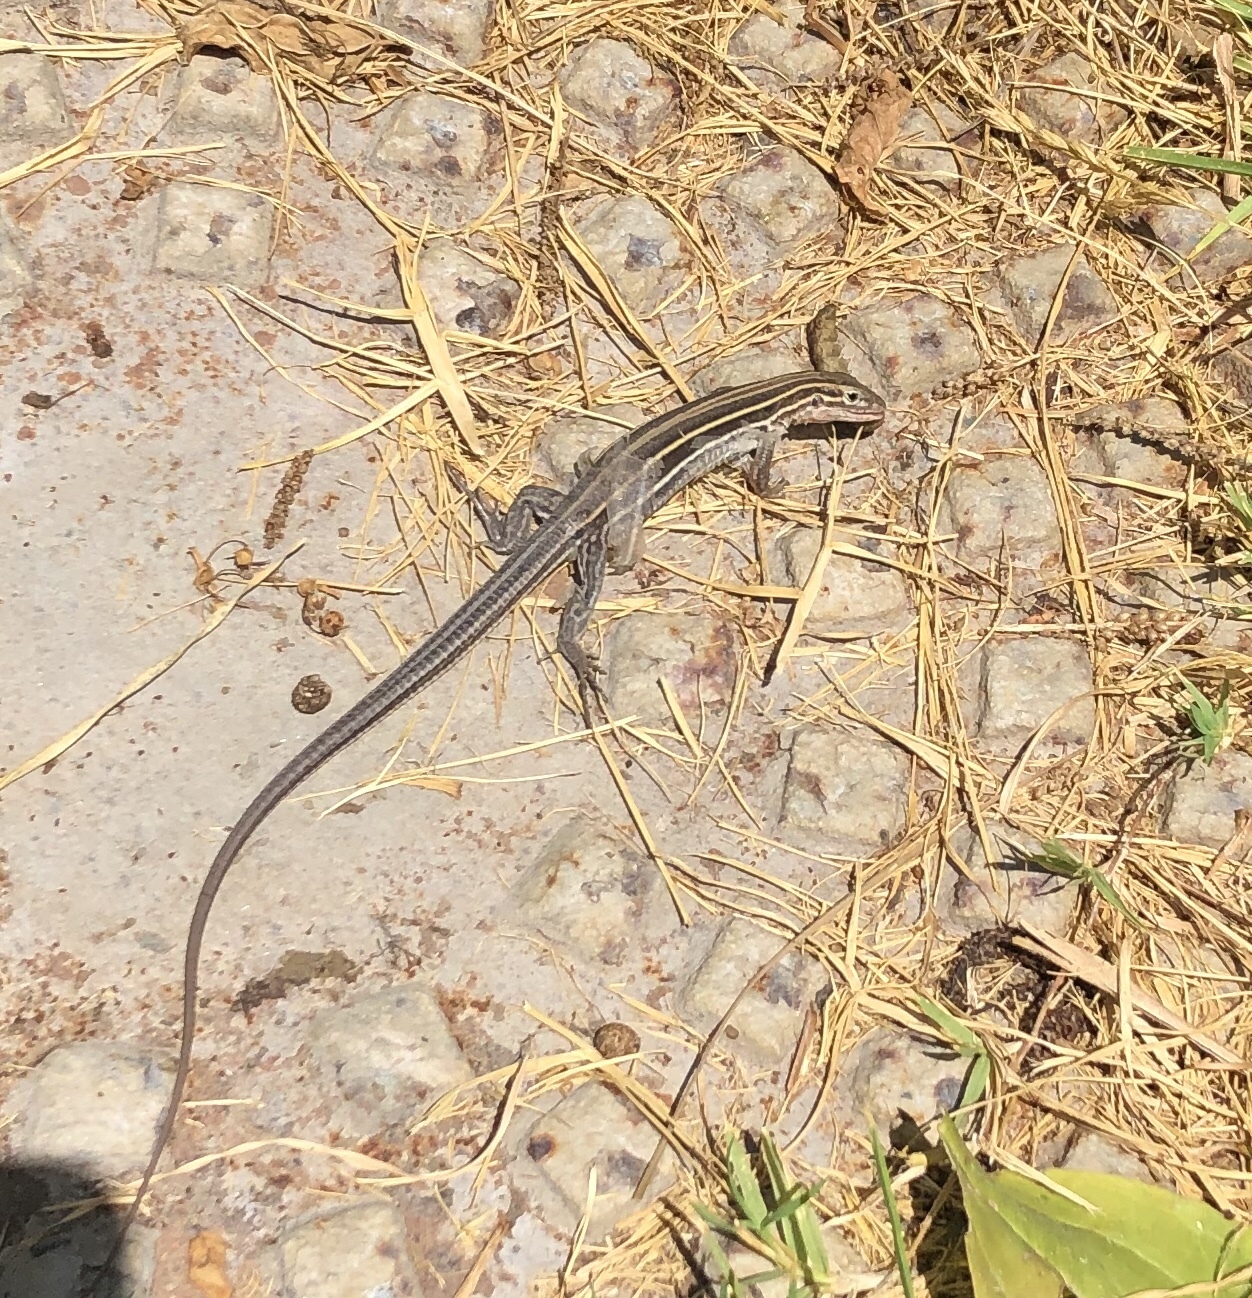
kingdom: Animalia
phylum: Chordata
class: Squamata
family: Teiidae
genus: Aspidoscelis
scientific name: Aspidoscelis hyperythrus
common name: Orange-throated race-runner
